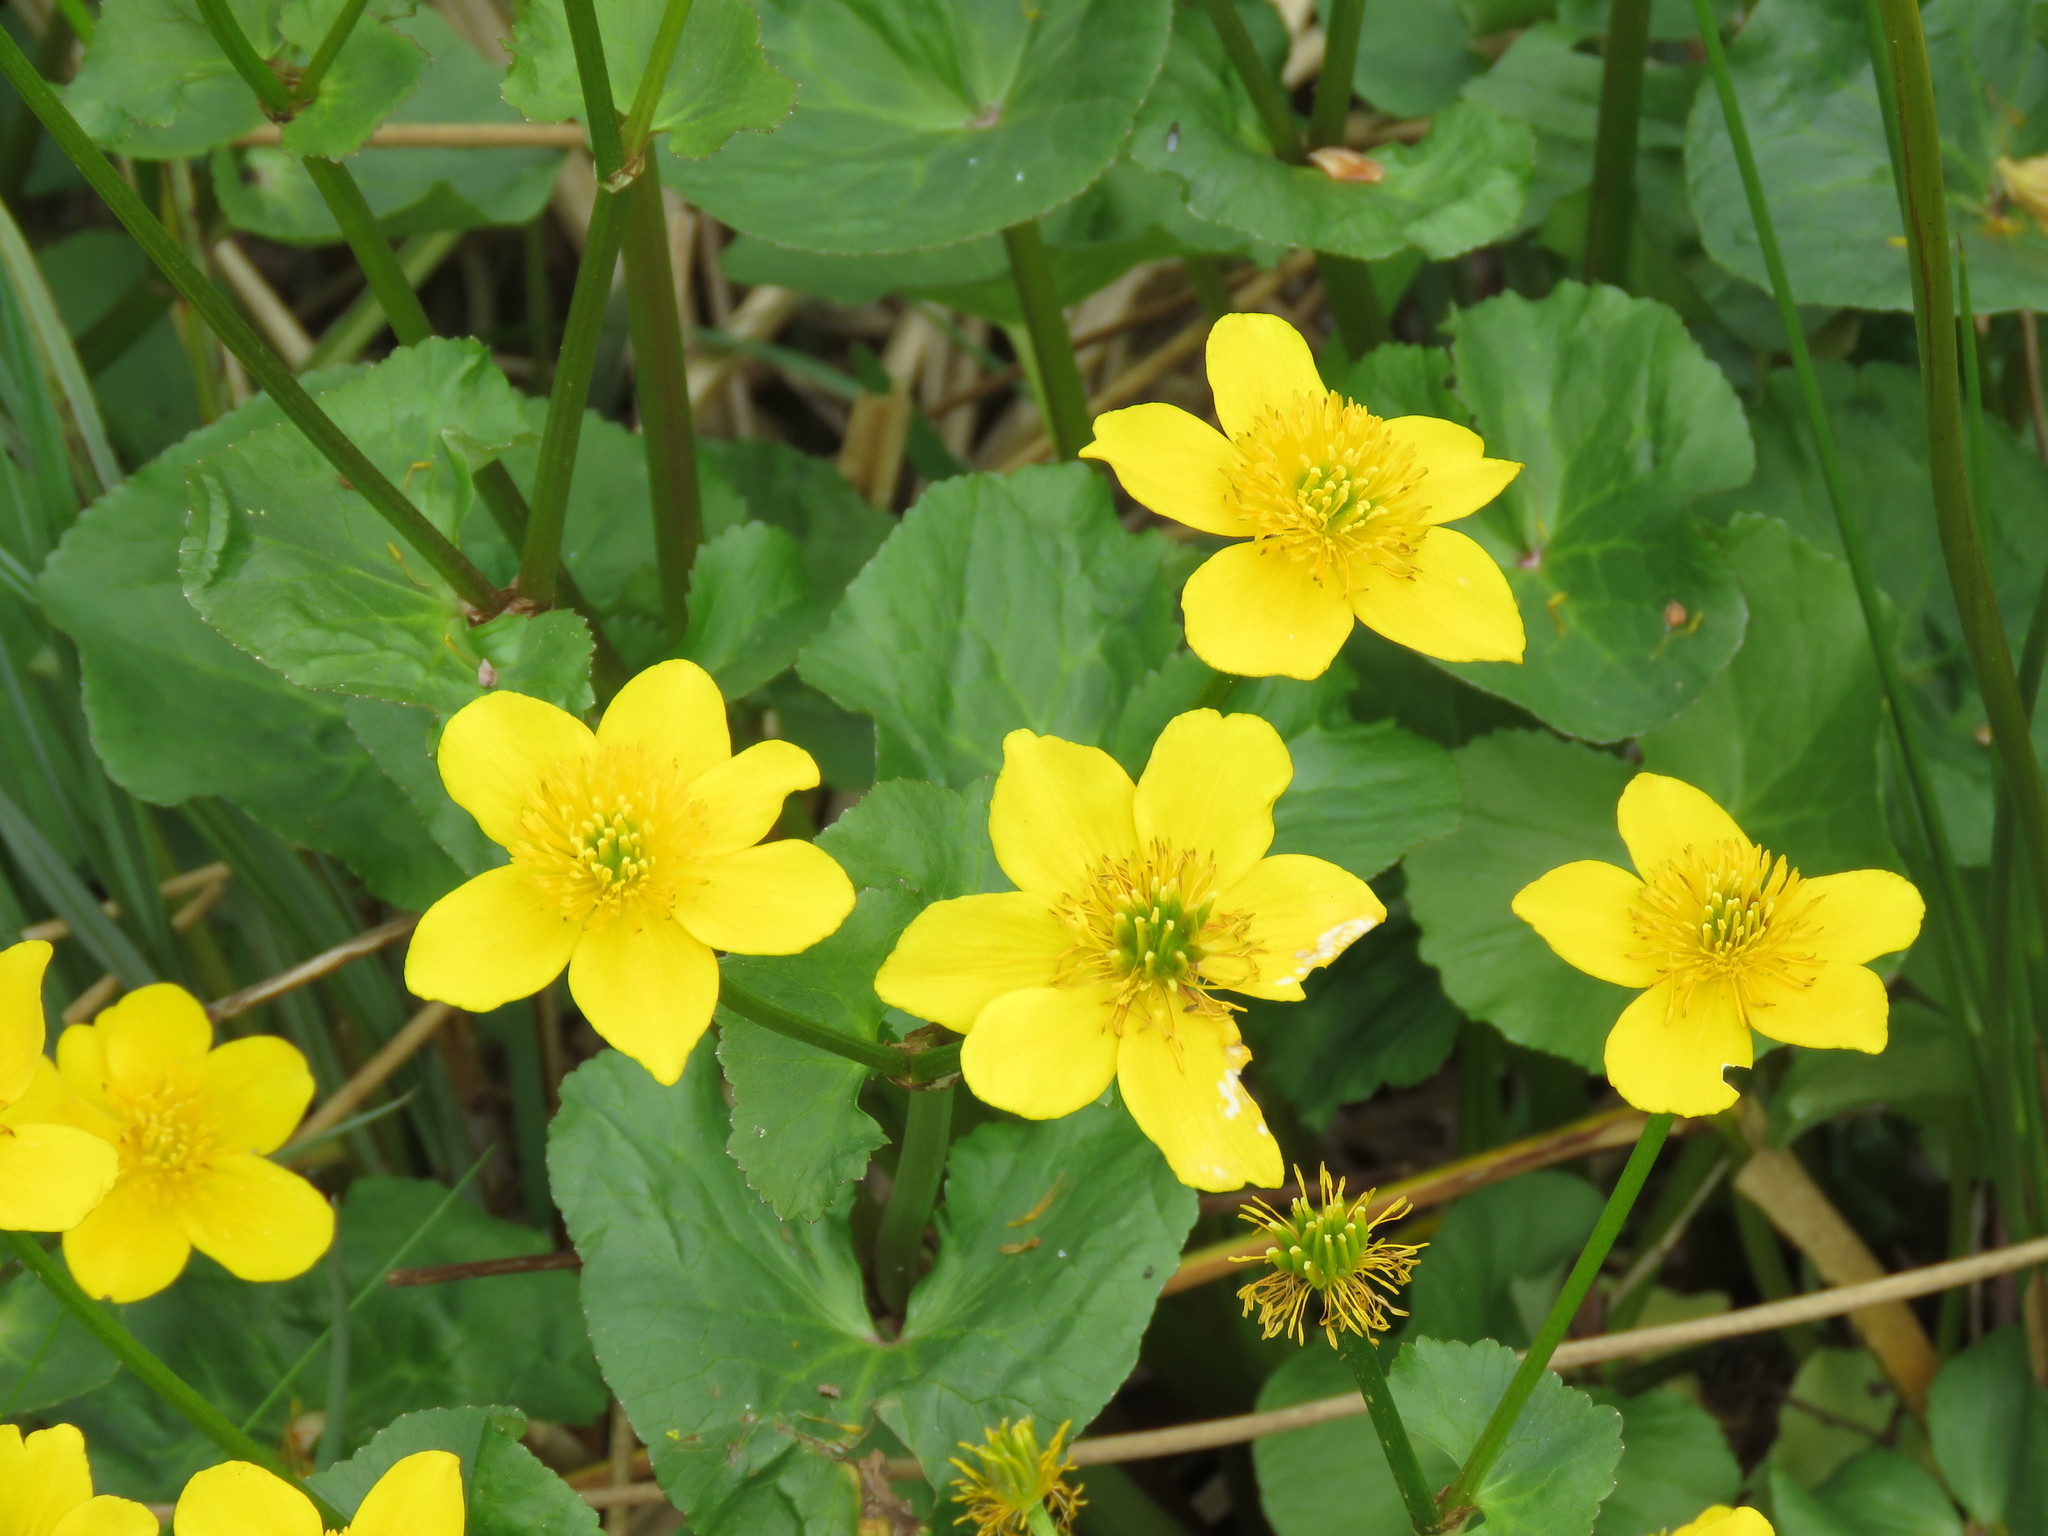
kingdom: Plantae
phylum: Tracheophyta
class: Magnoliopsida
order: Ranunculales
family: Ranunculaceae
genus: Caltha
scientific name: Caltha palustris
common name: Marsh marigold
